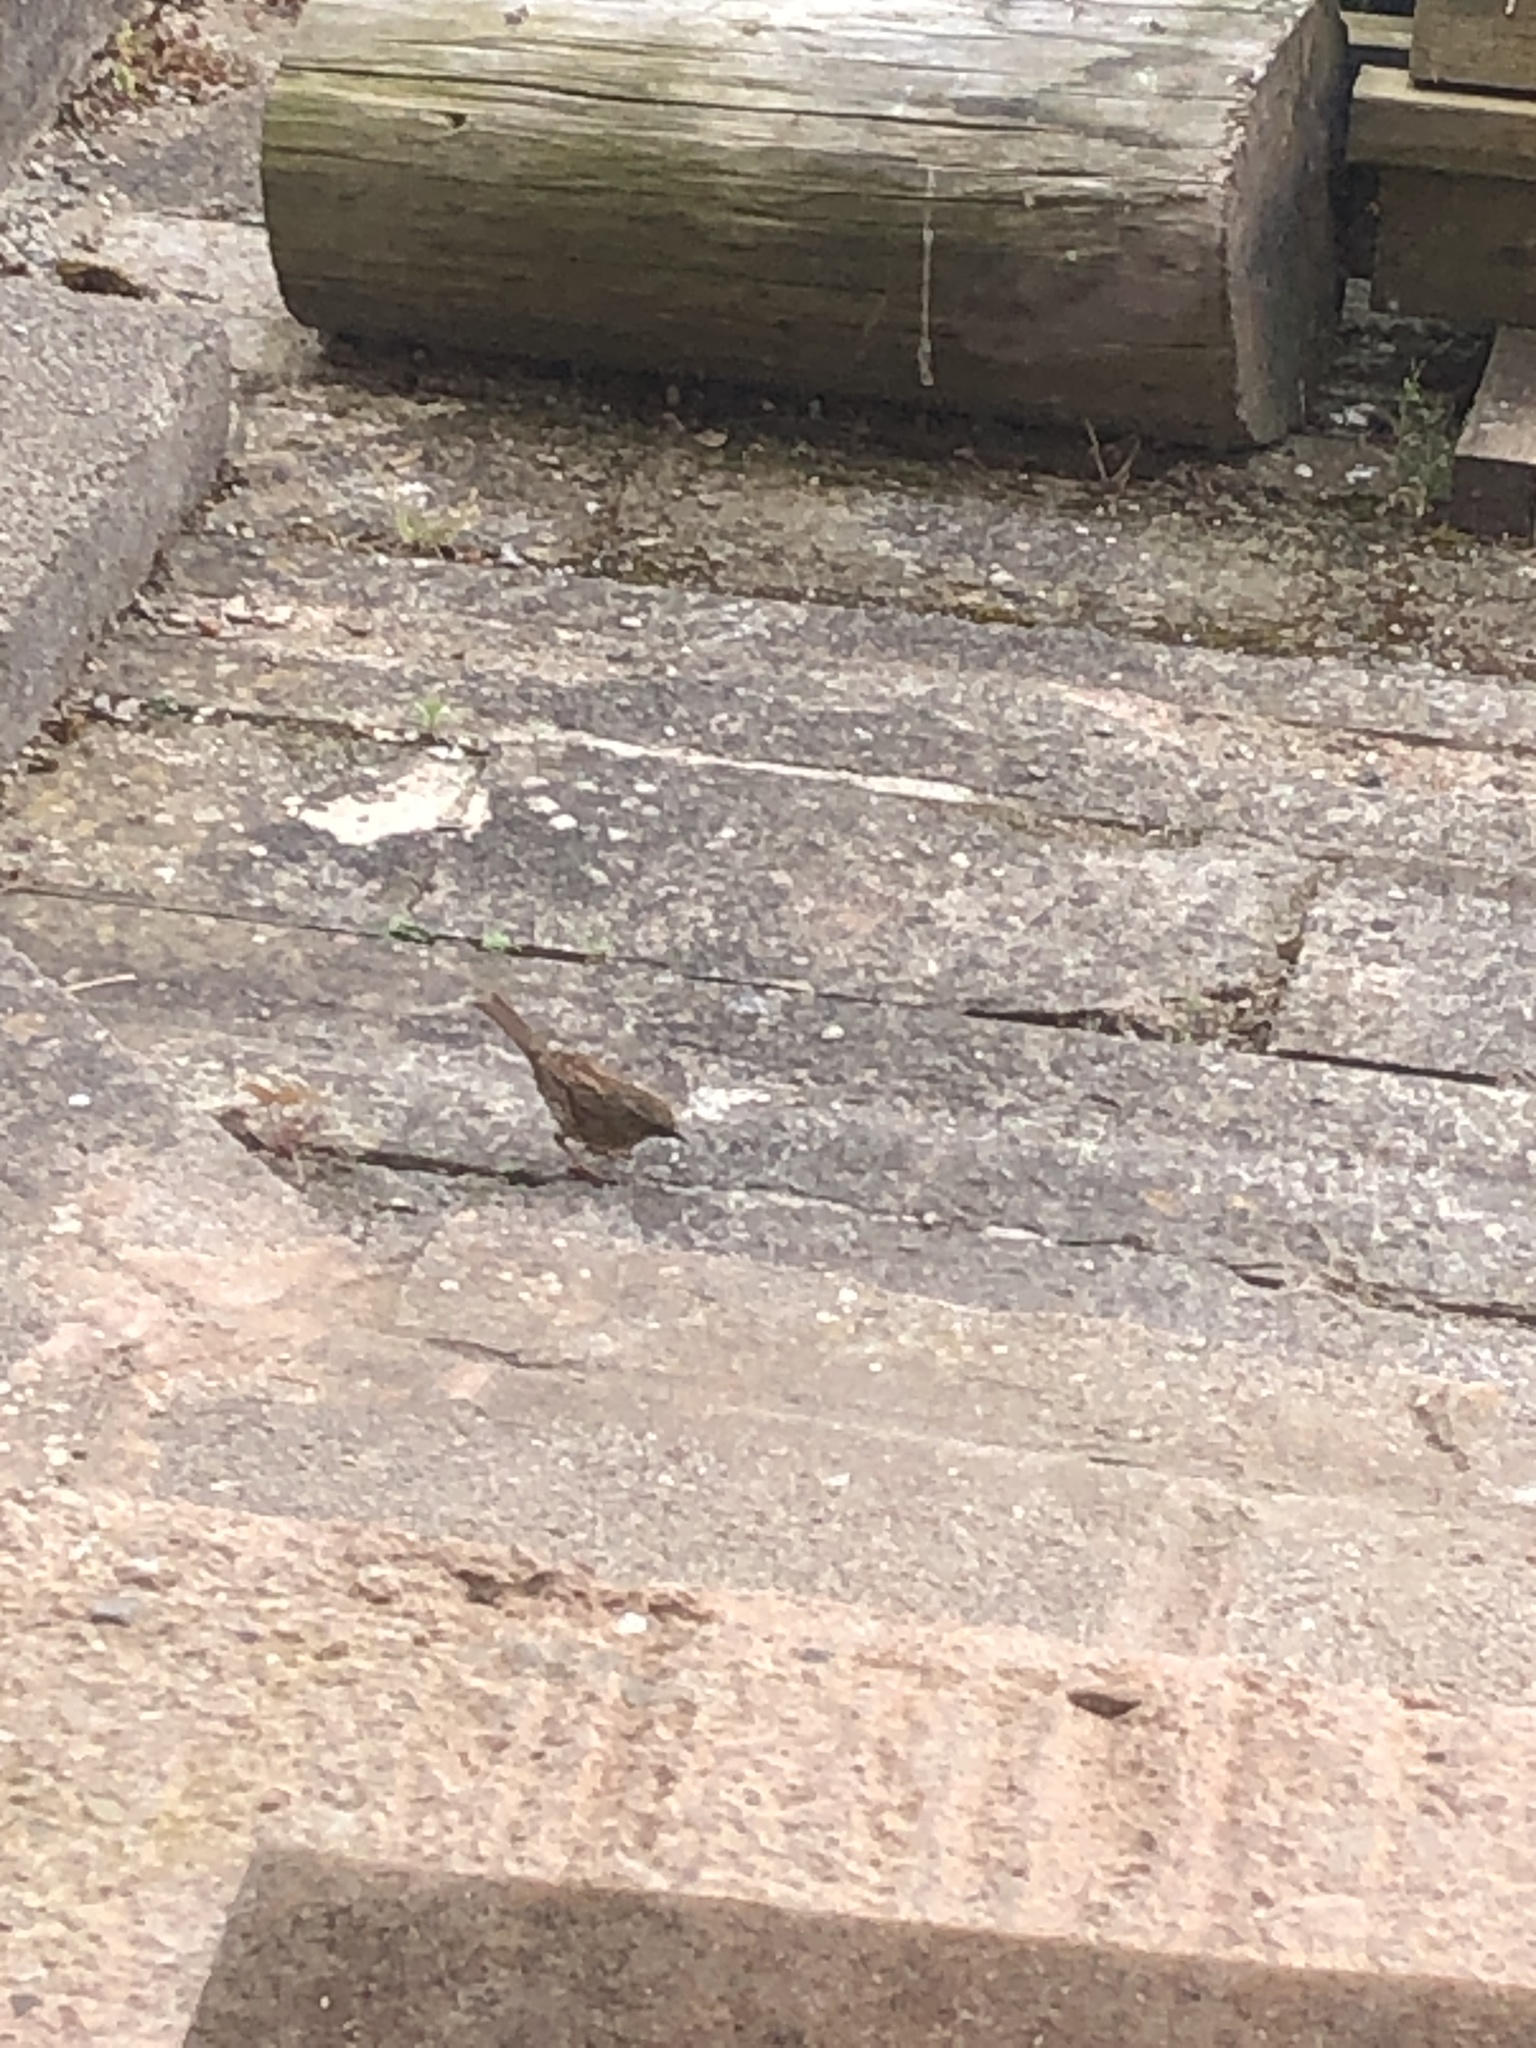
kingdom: Animalia
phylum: Chordata
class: Aves
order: Passeriformes
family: Prunellidae
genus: Prunella
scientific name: Prunella modularis
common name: Dunnock
